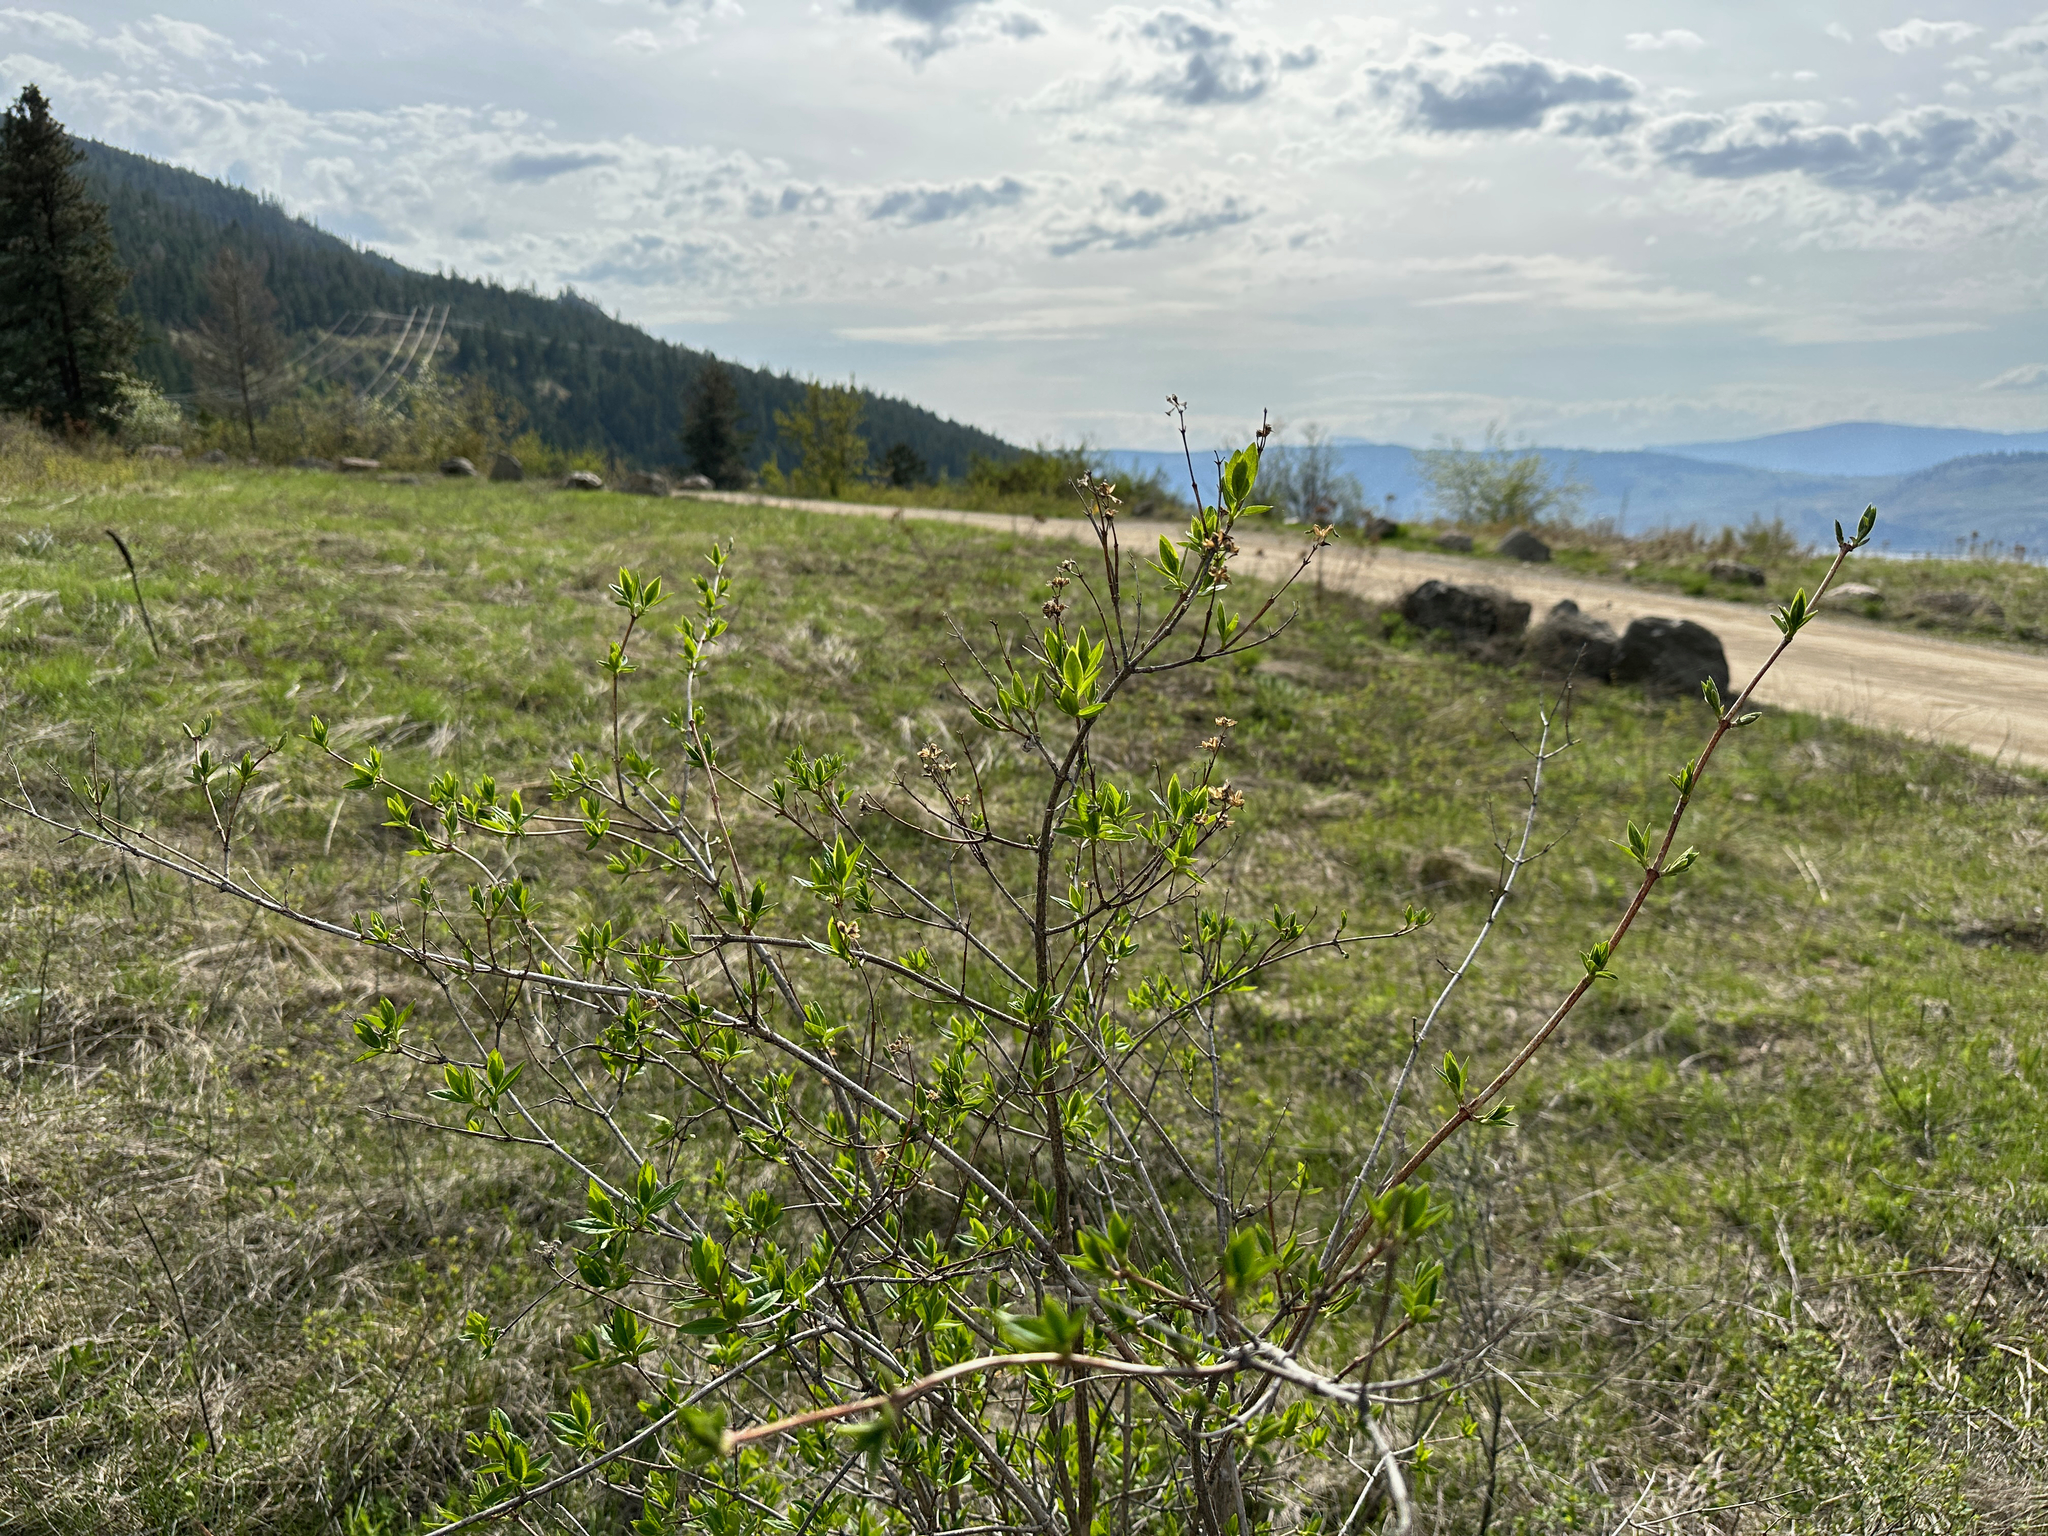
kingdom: Plantae
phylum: Tracheophyta
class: Magnoliopsida
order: Cornales
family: Hydrangeaceae
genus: Philadelphus
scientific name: Philadelphus lewisii
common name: Lewis's mock orange
